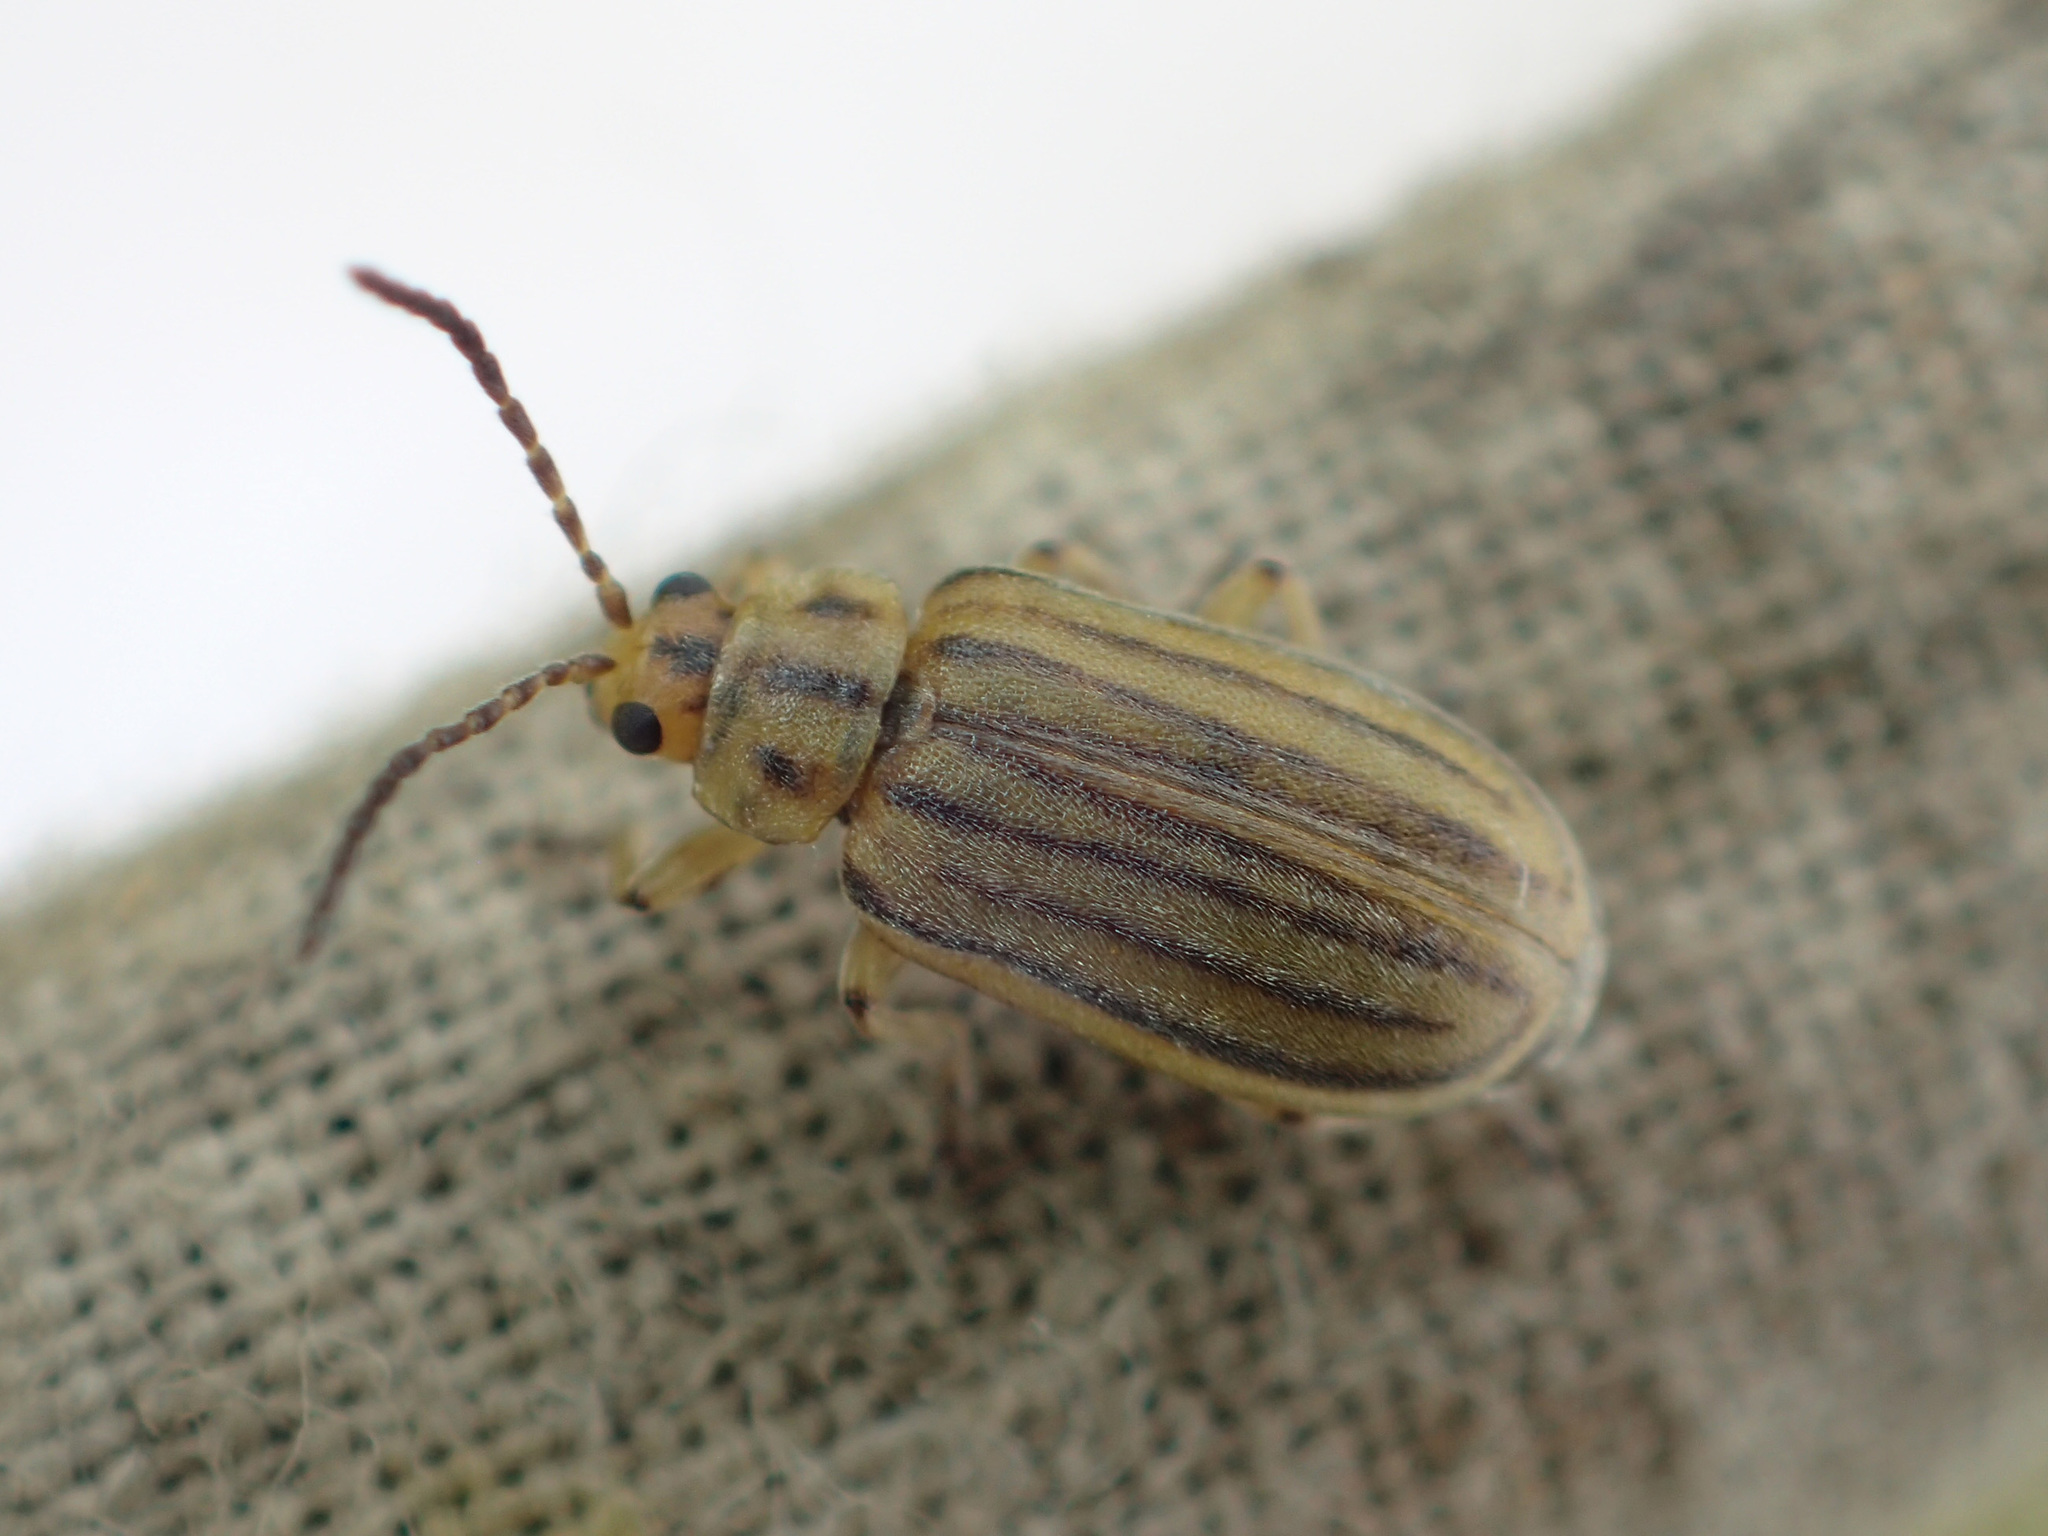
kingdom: Animalia
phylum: Arthropoda
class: Insecta
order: Coleoptera
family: Chrysomelidae
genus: Ophraella
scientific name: Ophraella notulata
